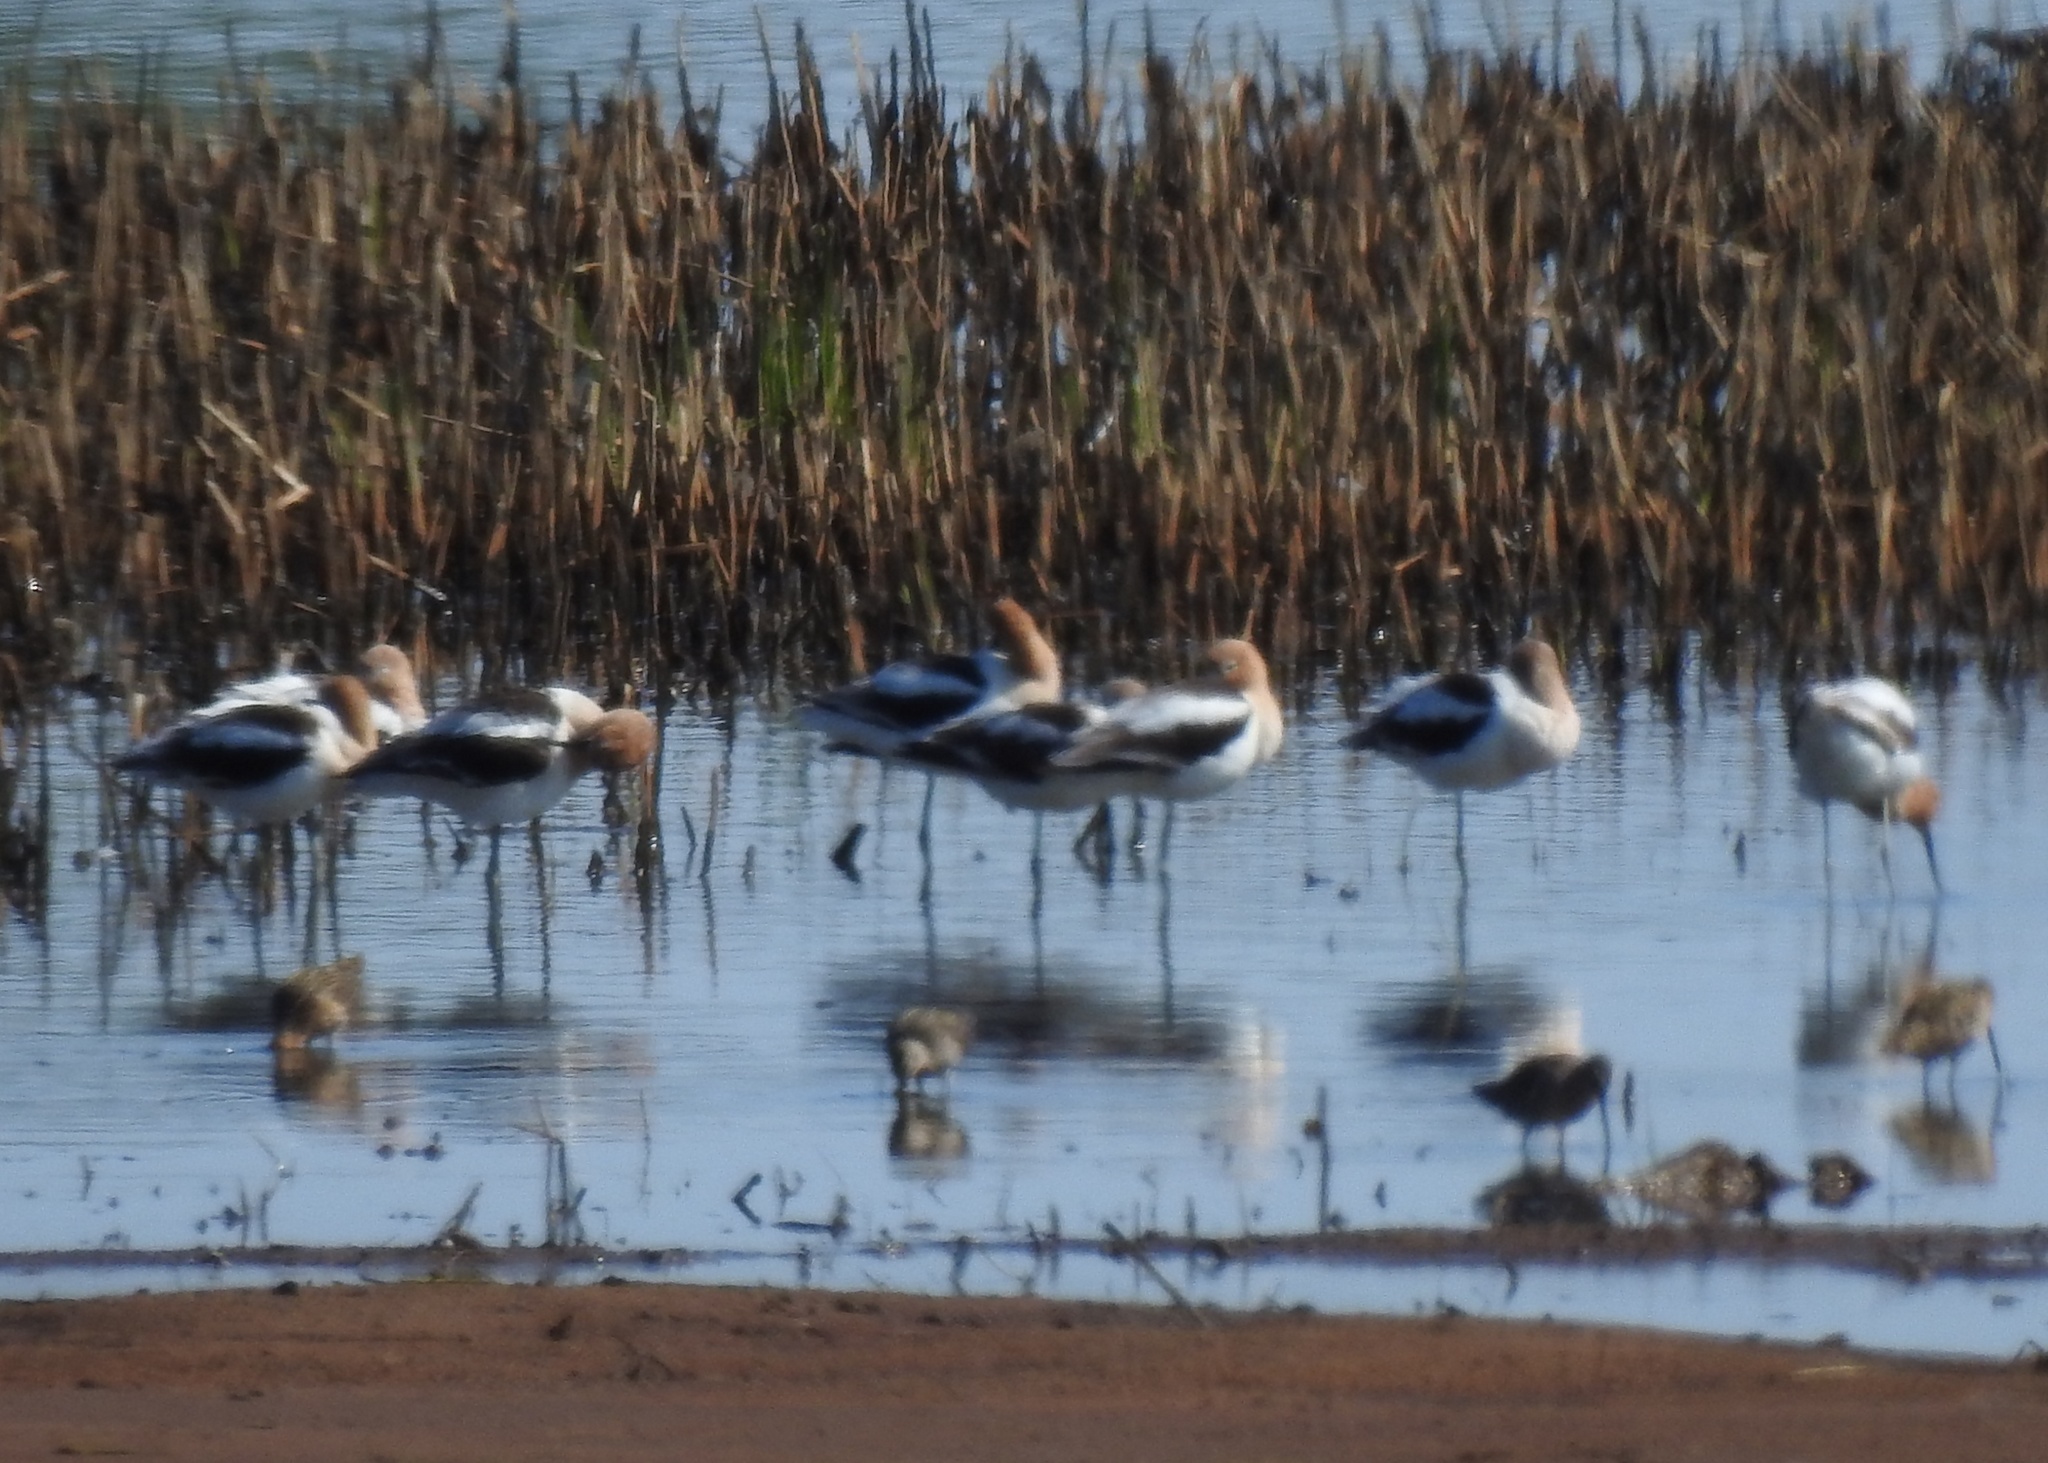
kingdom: Animalia
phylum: Chordata
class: Aves
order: Charadriiformes
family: Recurvirostridae
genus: Recurvirostra
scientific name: Recurvirostra americana
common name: American avocet
